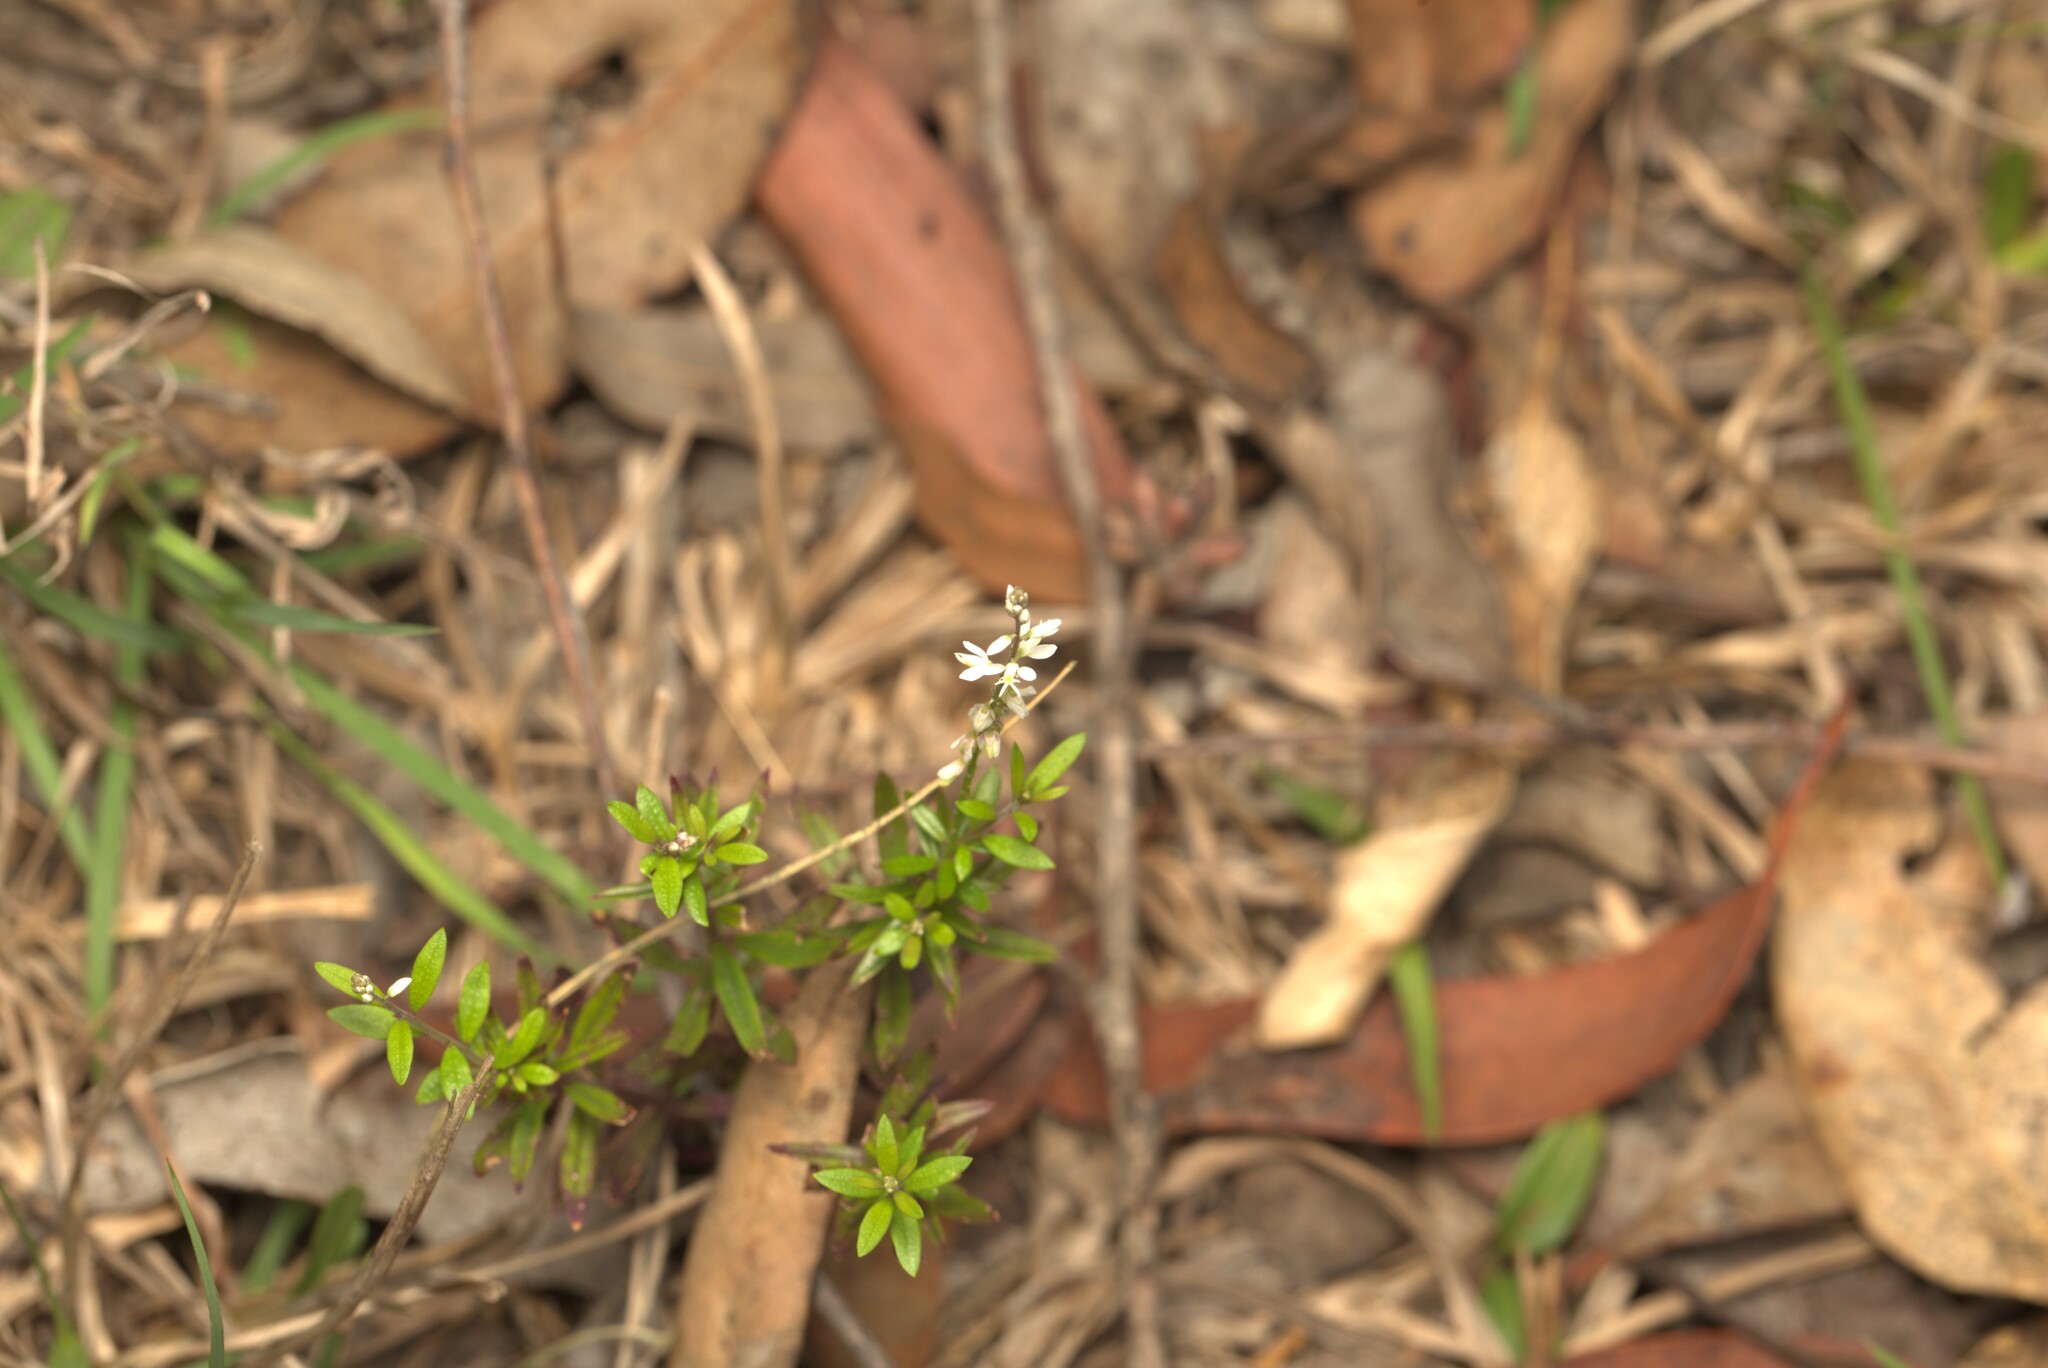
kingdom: Plantae
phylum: Tracheophyta
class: Magnoliopsida
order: Fabales
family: Polygalaceae
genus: Polygala
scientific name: Polygala paniculata
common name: Orosne
